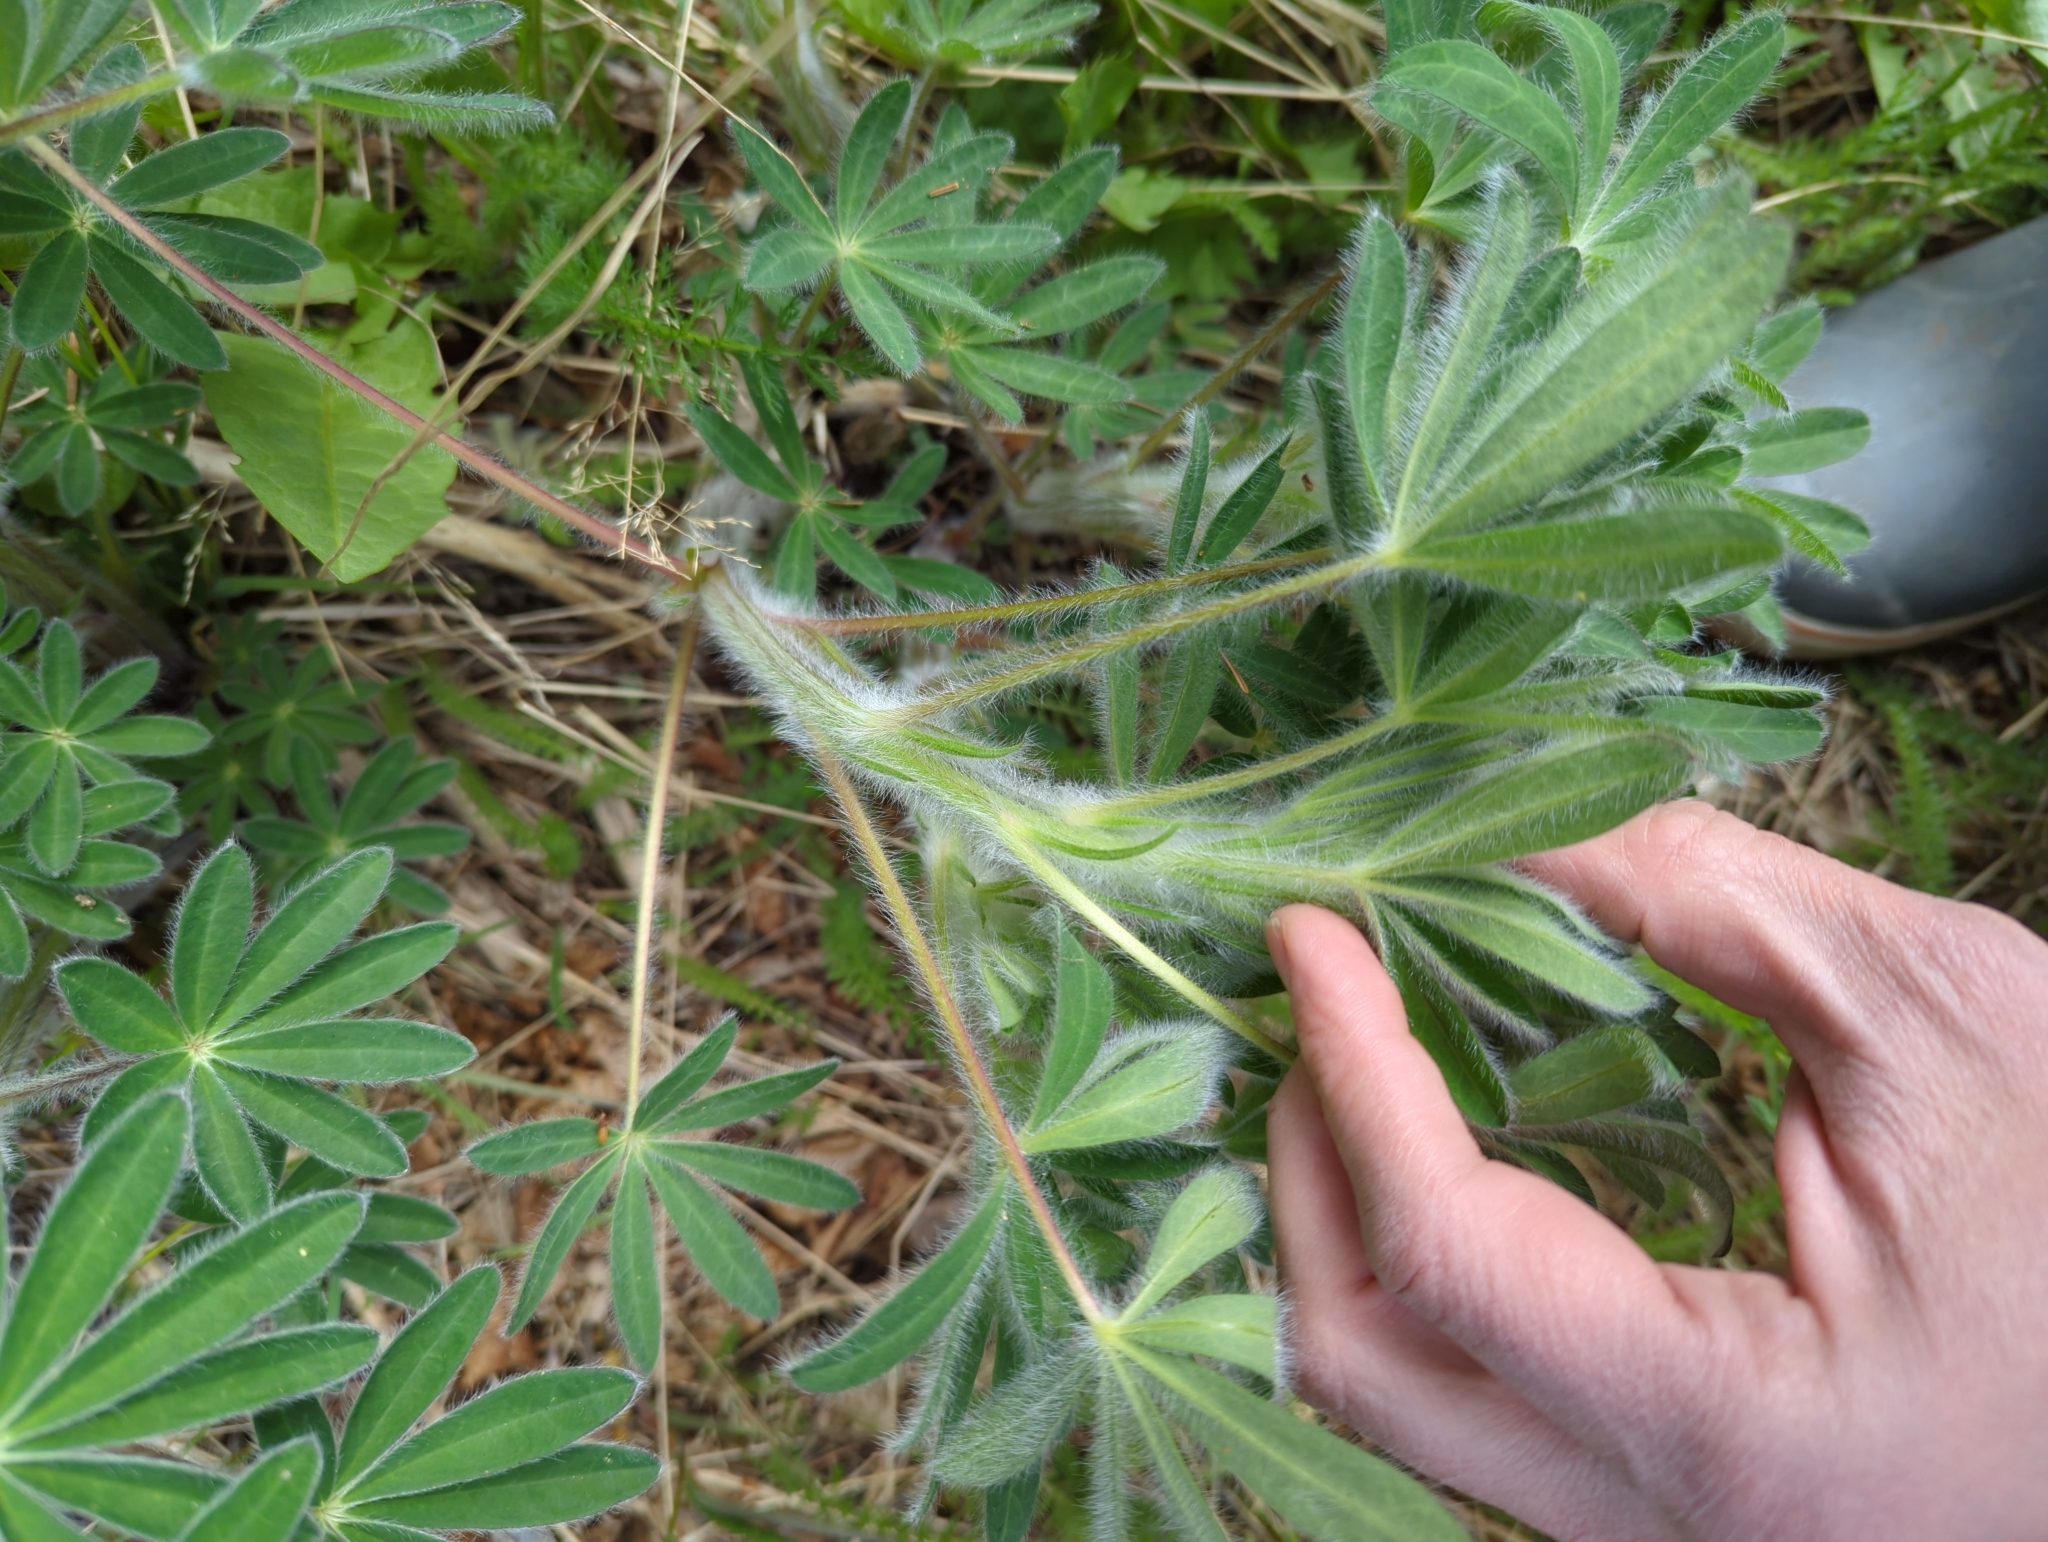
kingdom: Plantae
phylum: Tracheophyta
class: Magnoliopsida
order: Fabales
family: Fabaceae
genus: Lupinus
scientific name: Lupinus nootkatensis
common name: Nootka lupine
